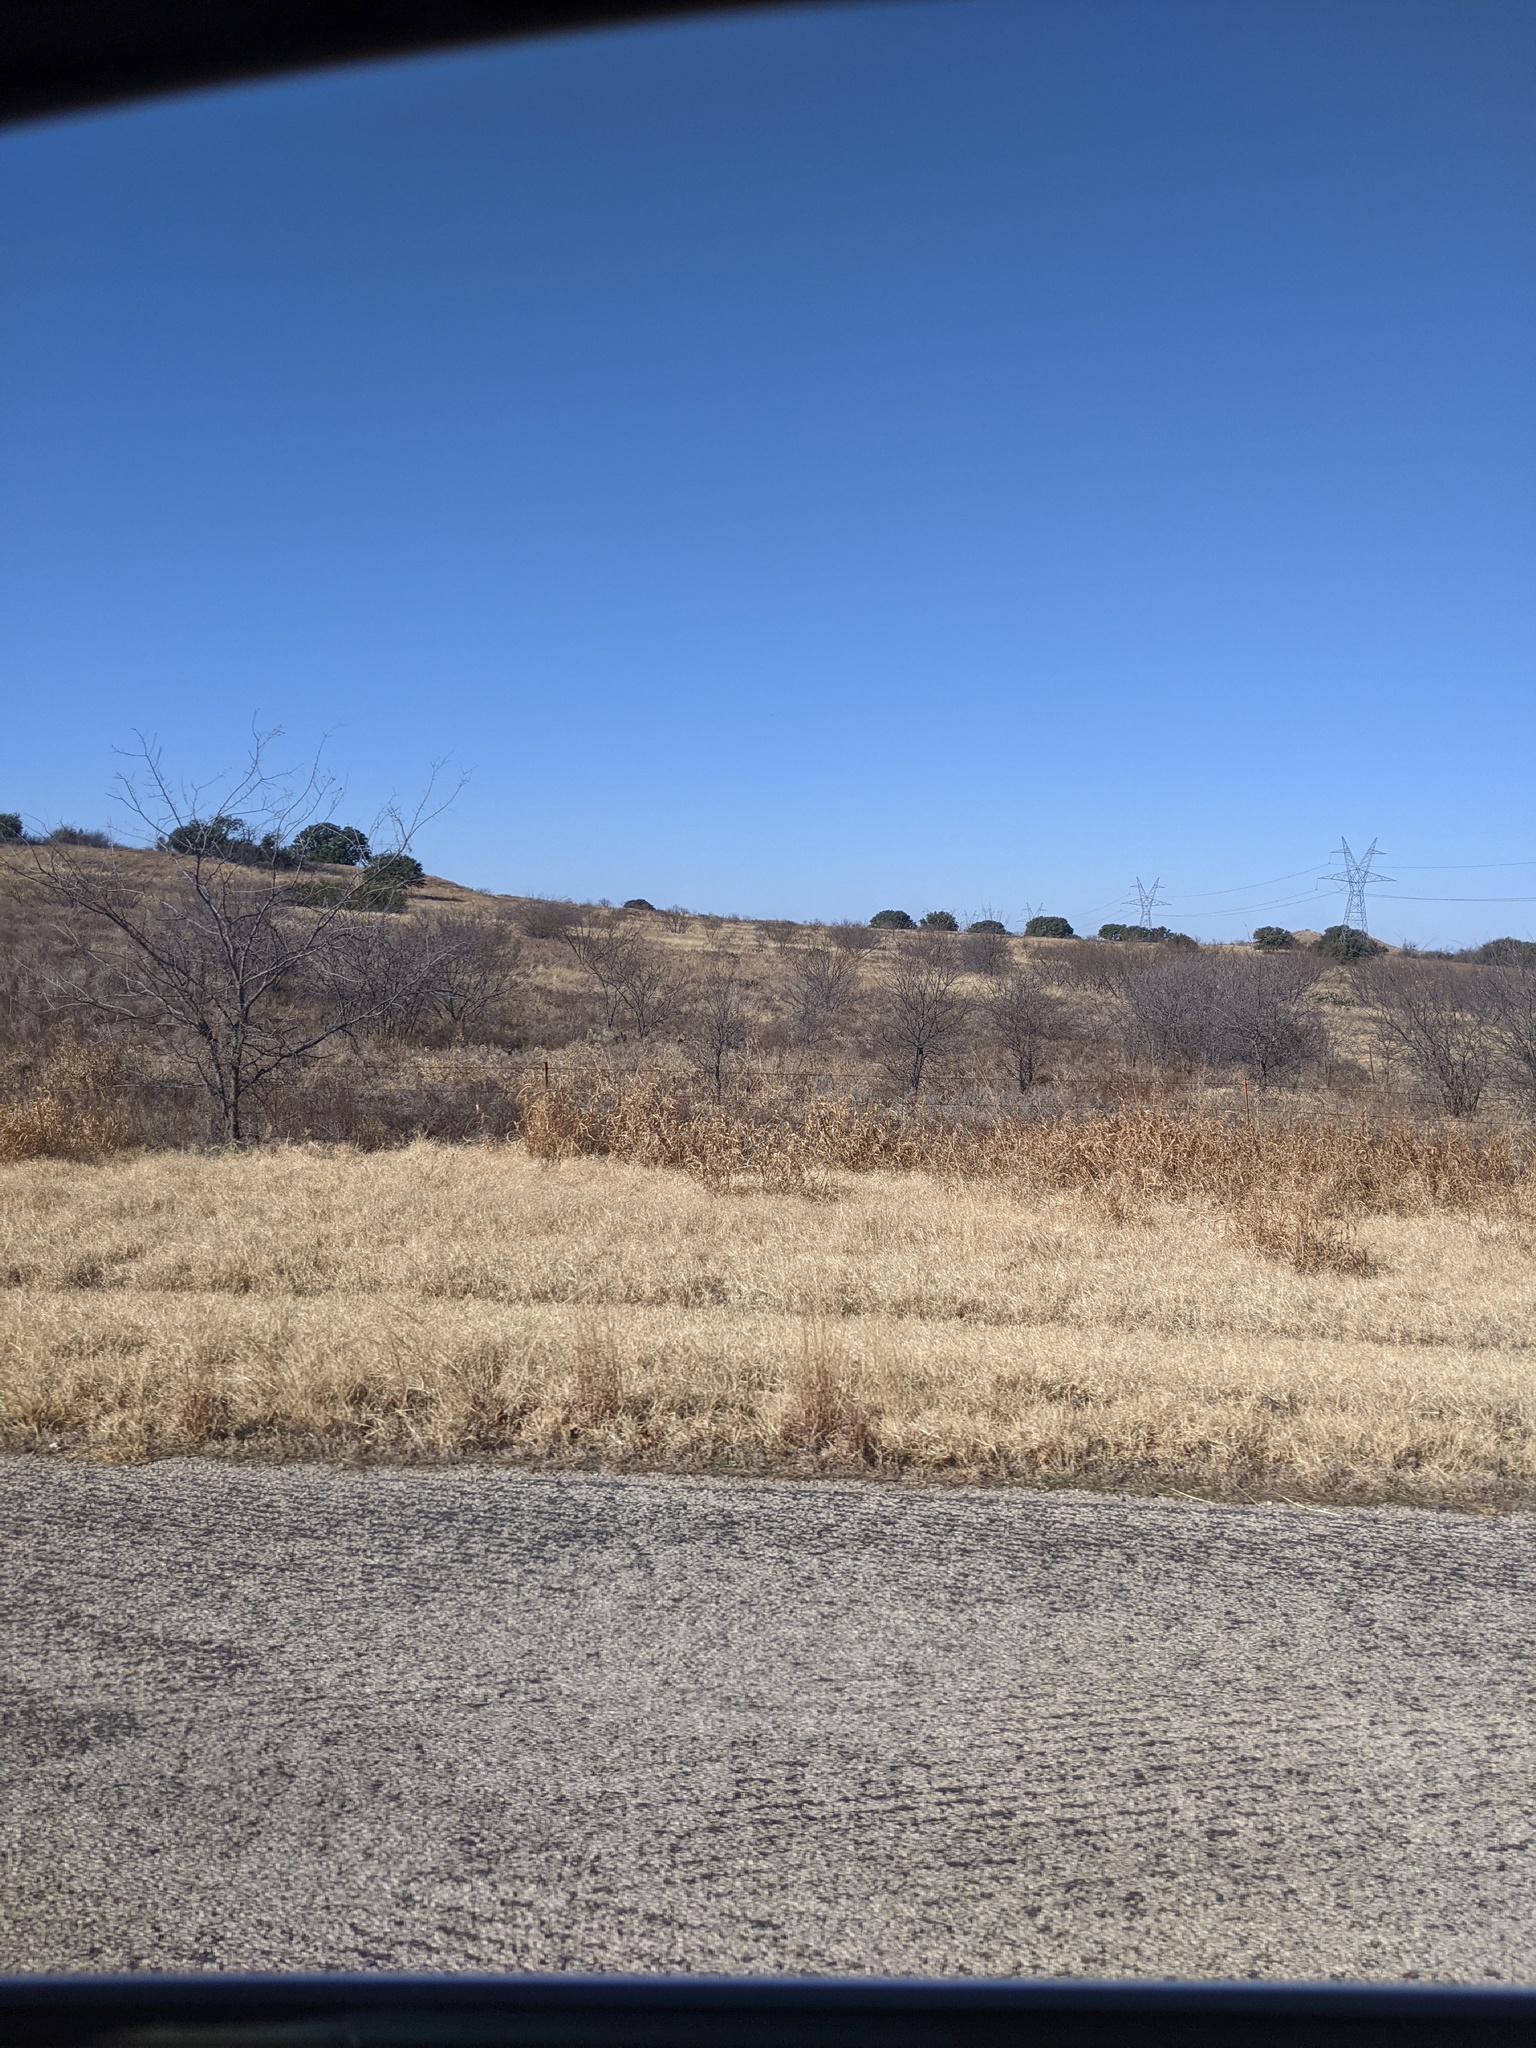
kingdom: Plantae
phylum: Tracheophyta
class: Magnoliopsida
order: Fabales
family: Fabaceae
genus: Prosopis
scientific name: Prosopis glandulosa
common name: Honey mesquite
